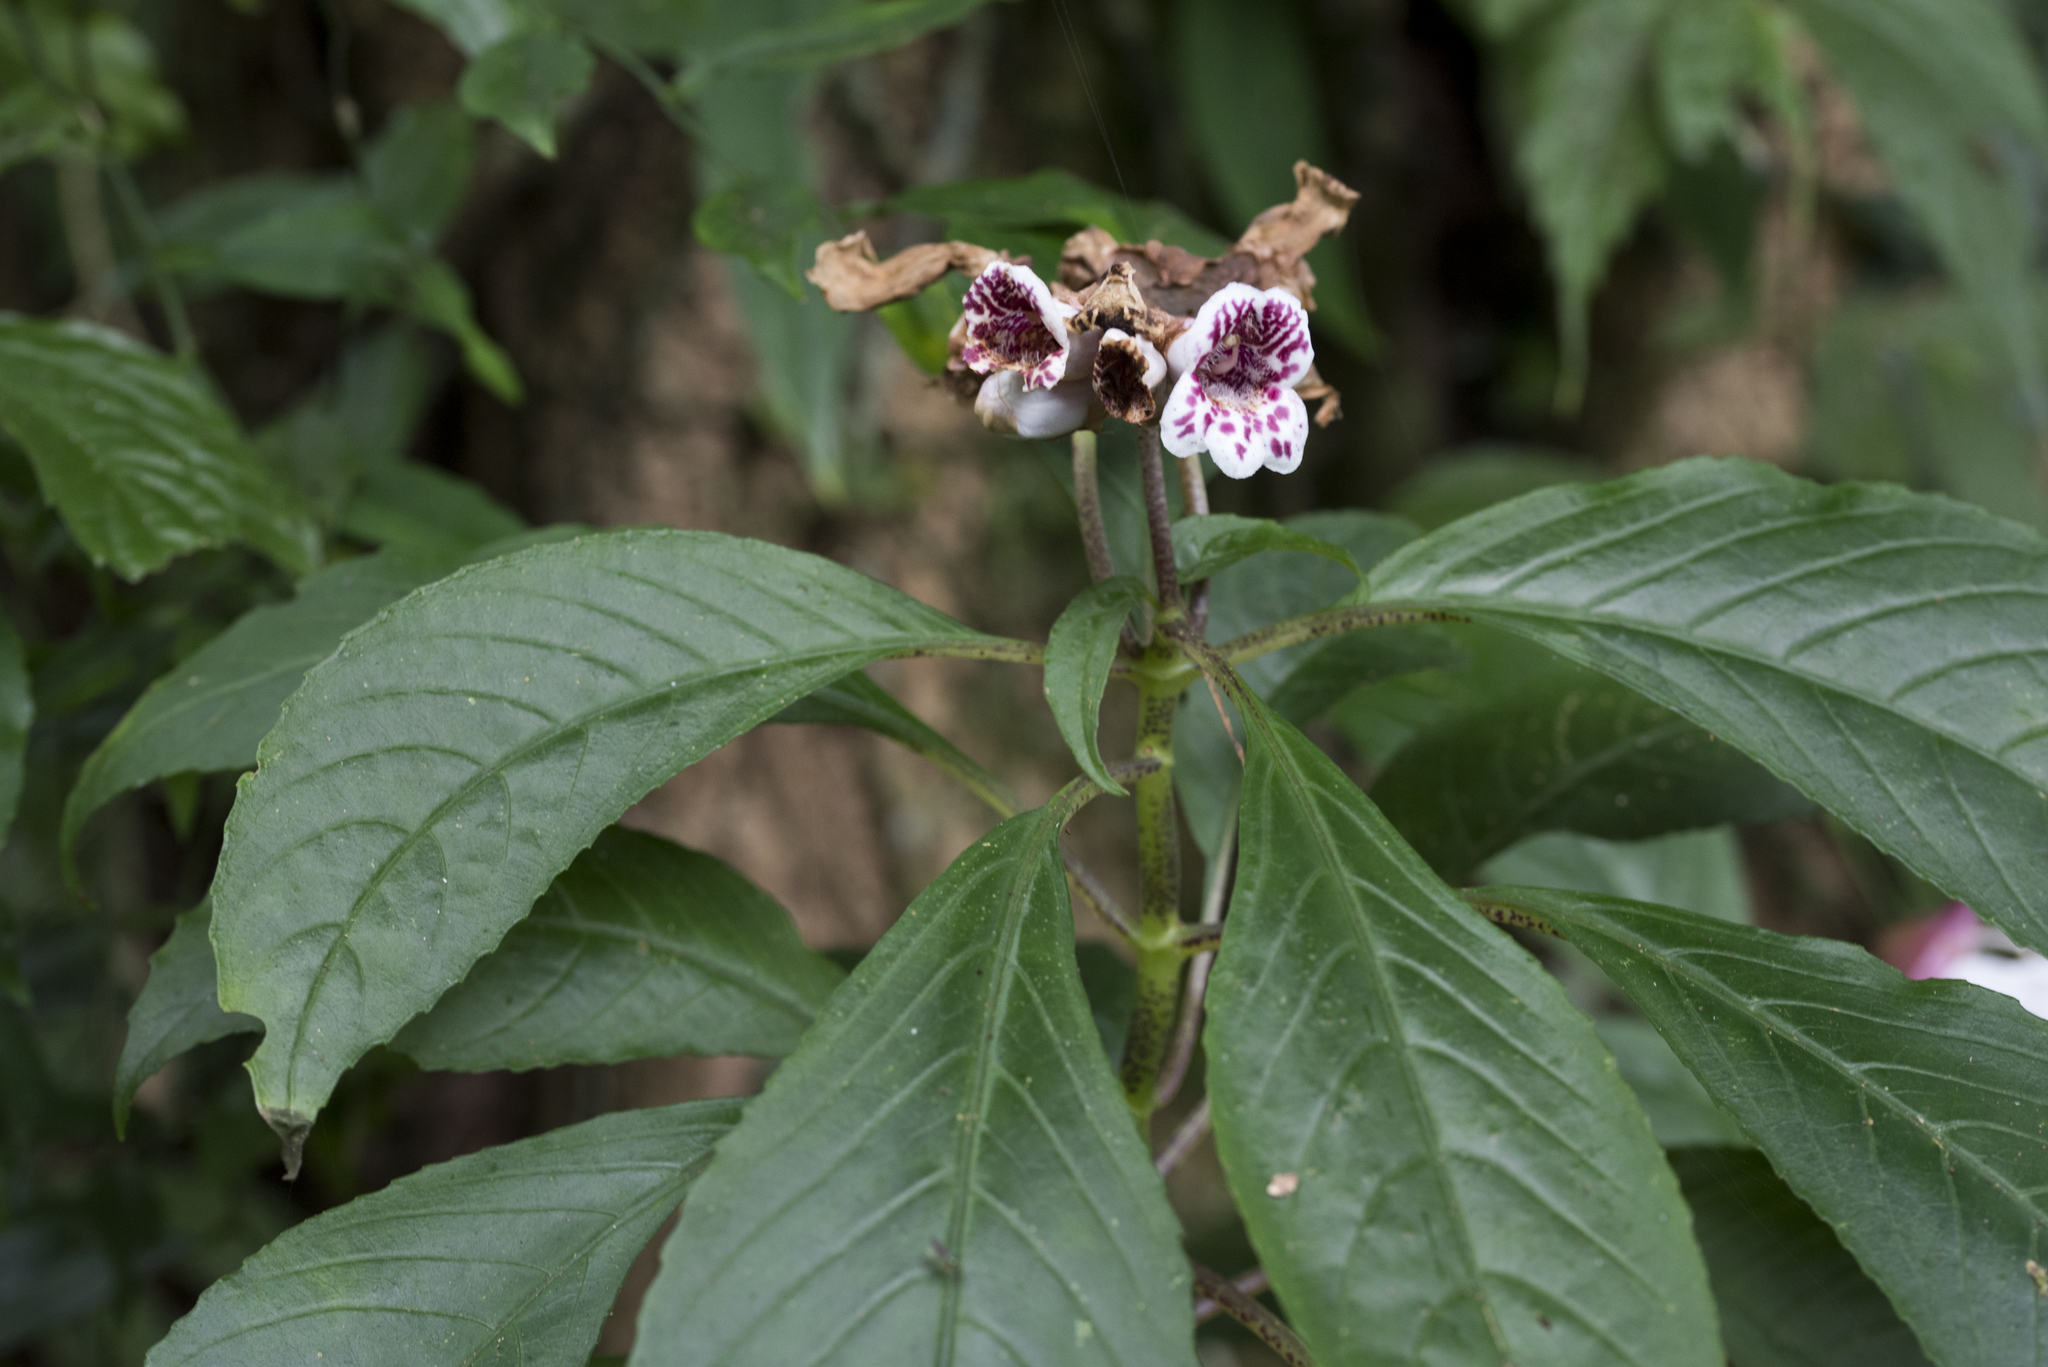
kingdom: Plantae
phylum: Tracheophyta
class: Magnoliopsida
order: Lamiales
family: Gesneriaceae
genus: Hemiboea
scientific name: Hemiboea bicornuta
